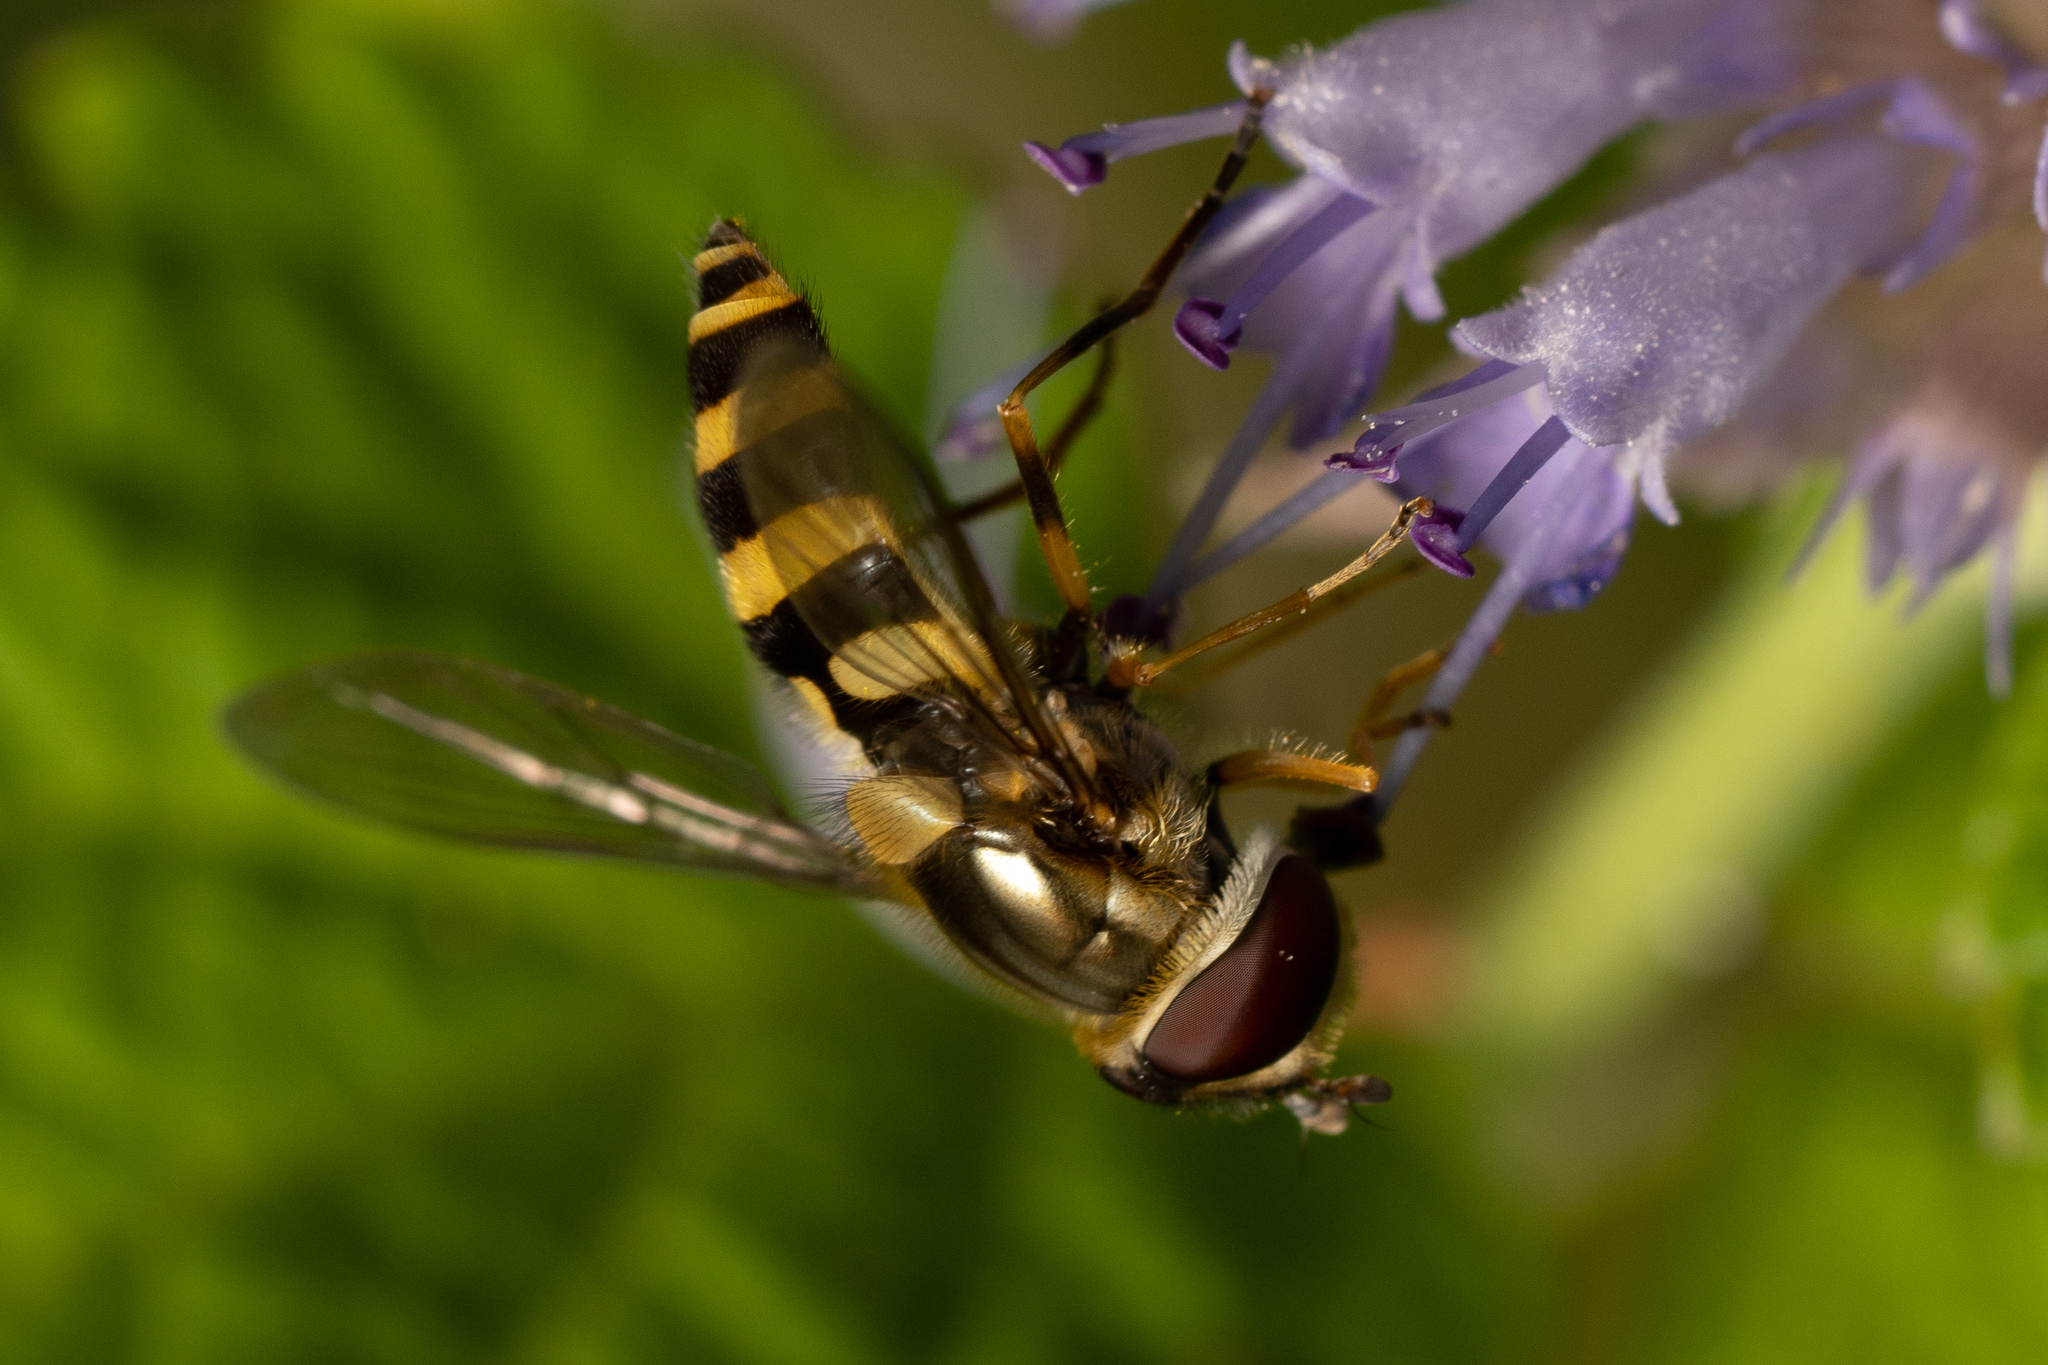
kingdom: Animalia
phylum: Arthropoda
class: Insecta
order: Diptera
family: Syrphidae
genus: Syrphus
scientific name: Syrphus rectus
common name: Yellow-legged flower fly
